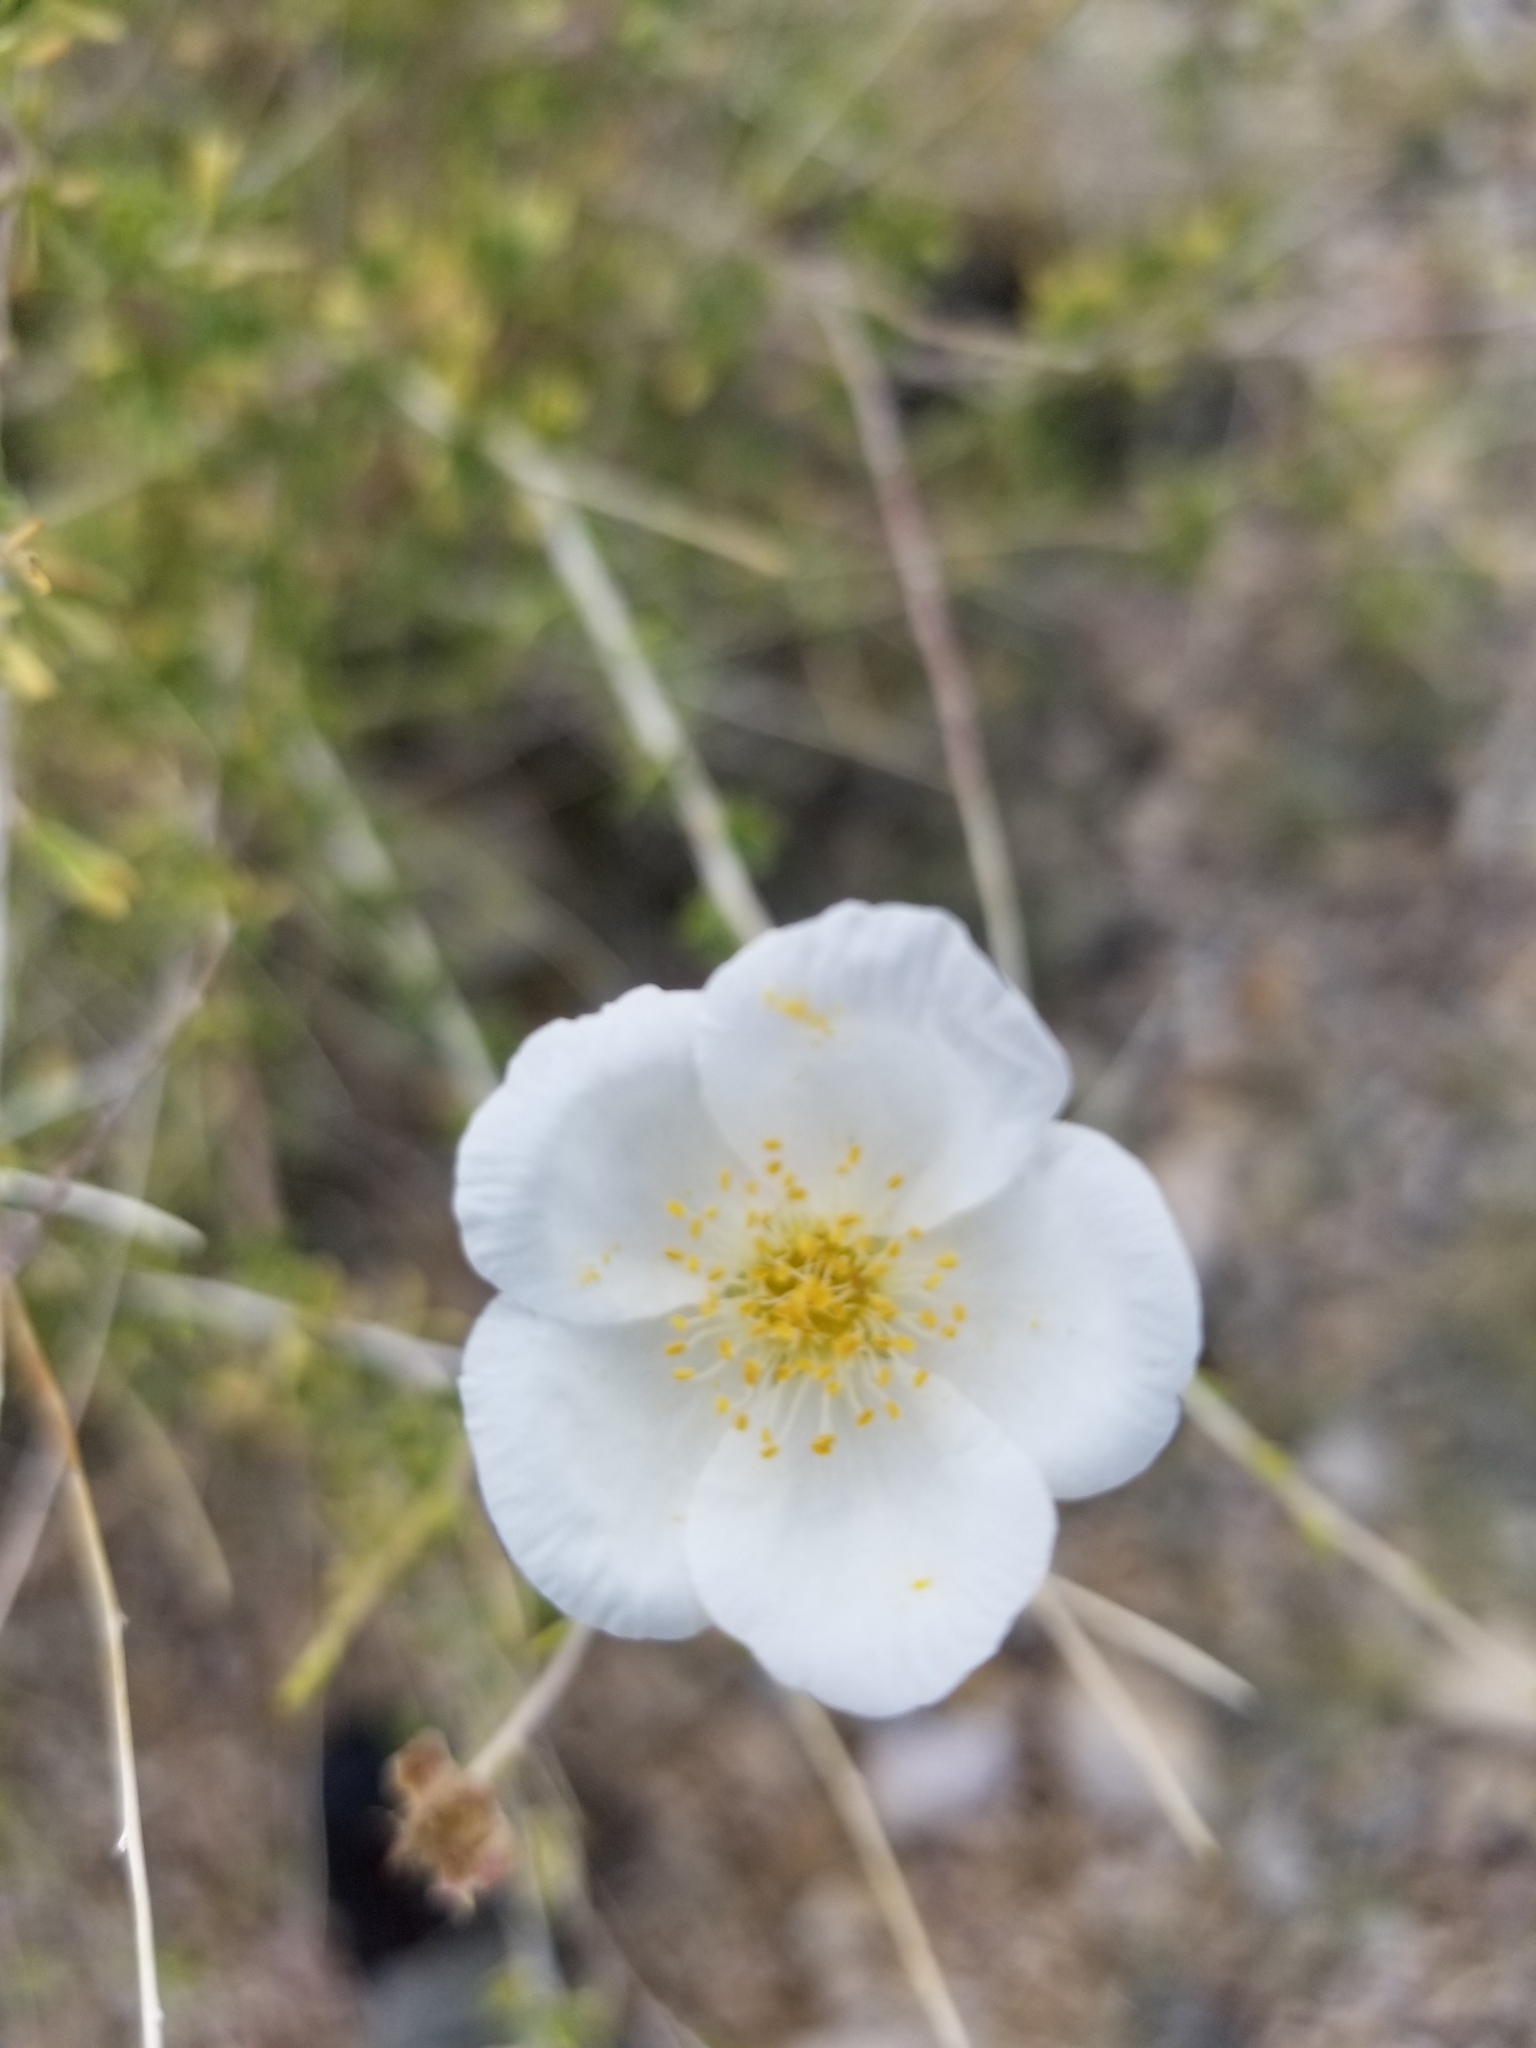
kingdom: Plantae
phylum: Tracheophyta
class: Magnoliopsida
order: Rosales
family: Rosaceae
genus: Fallugia
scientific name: Fallugia paradoxa
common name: Apache-plume
